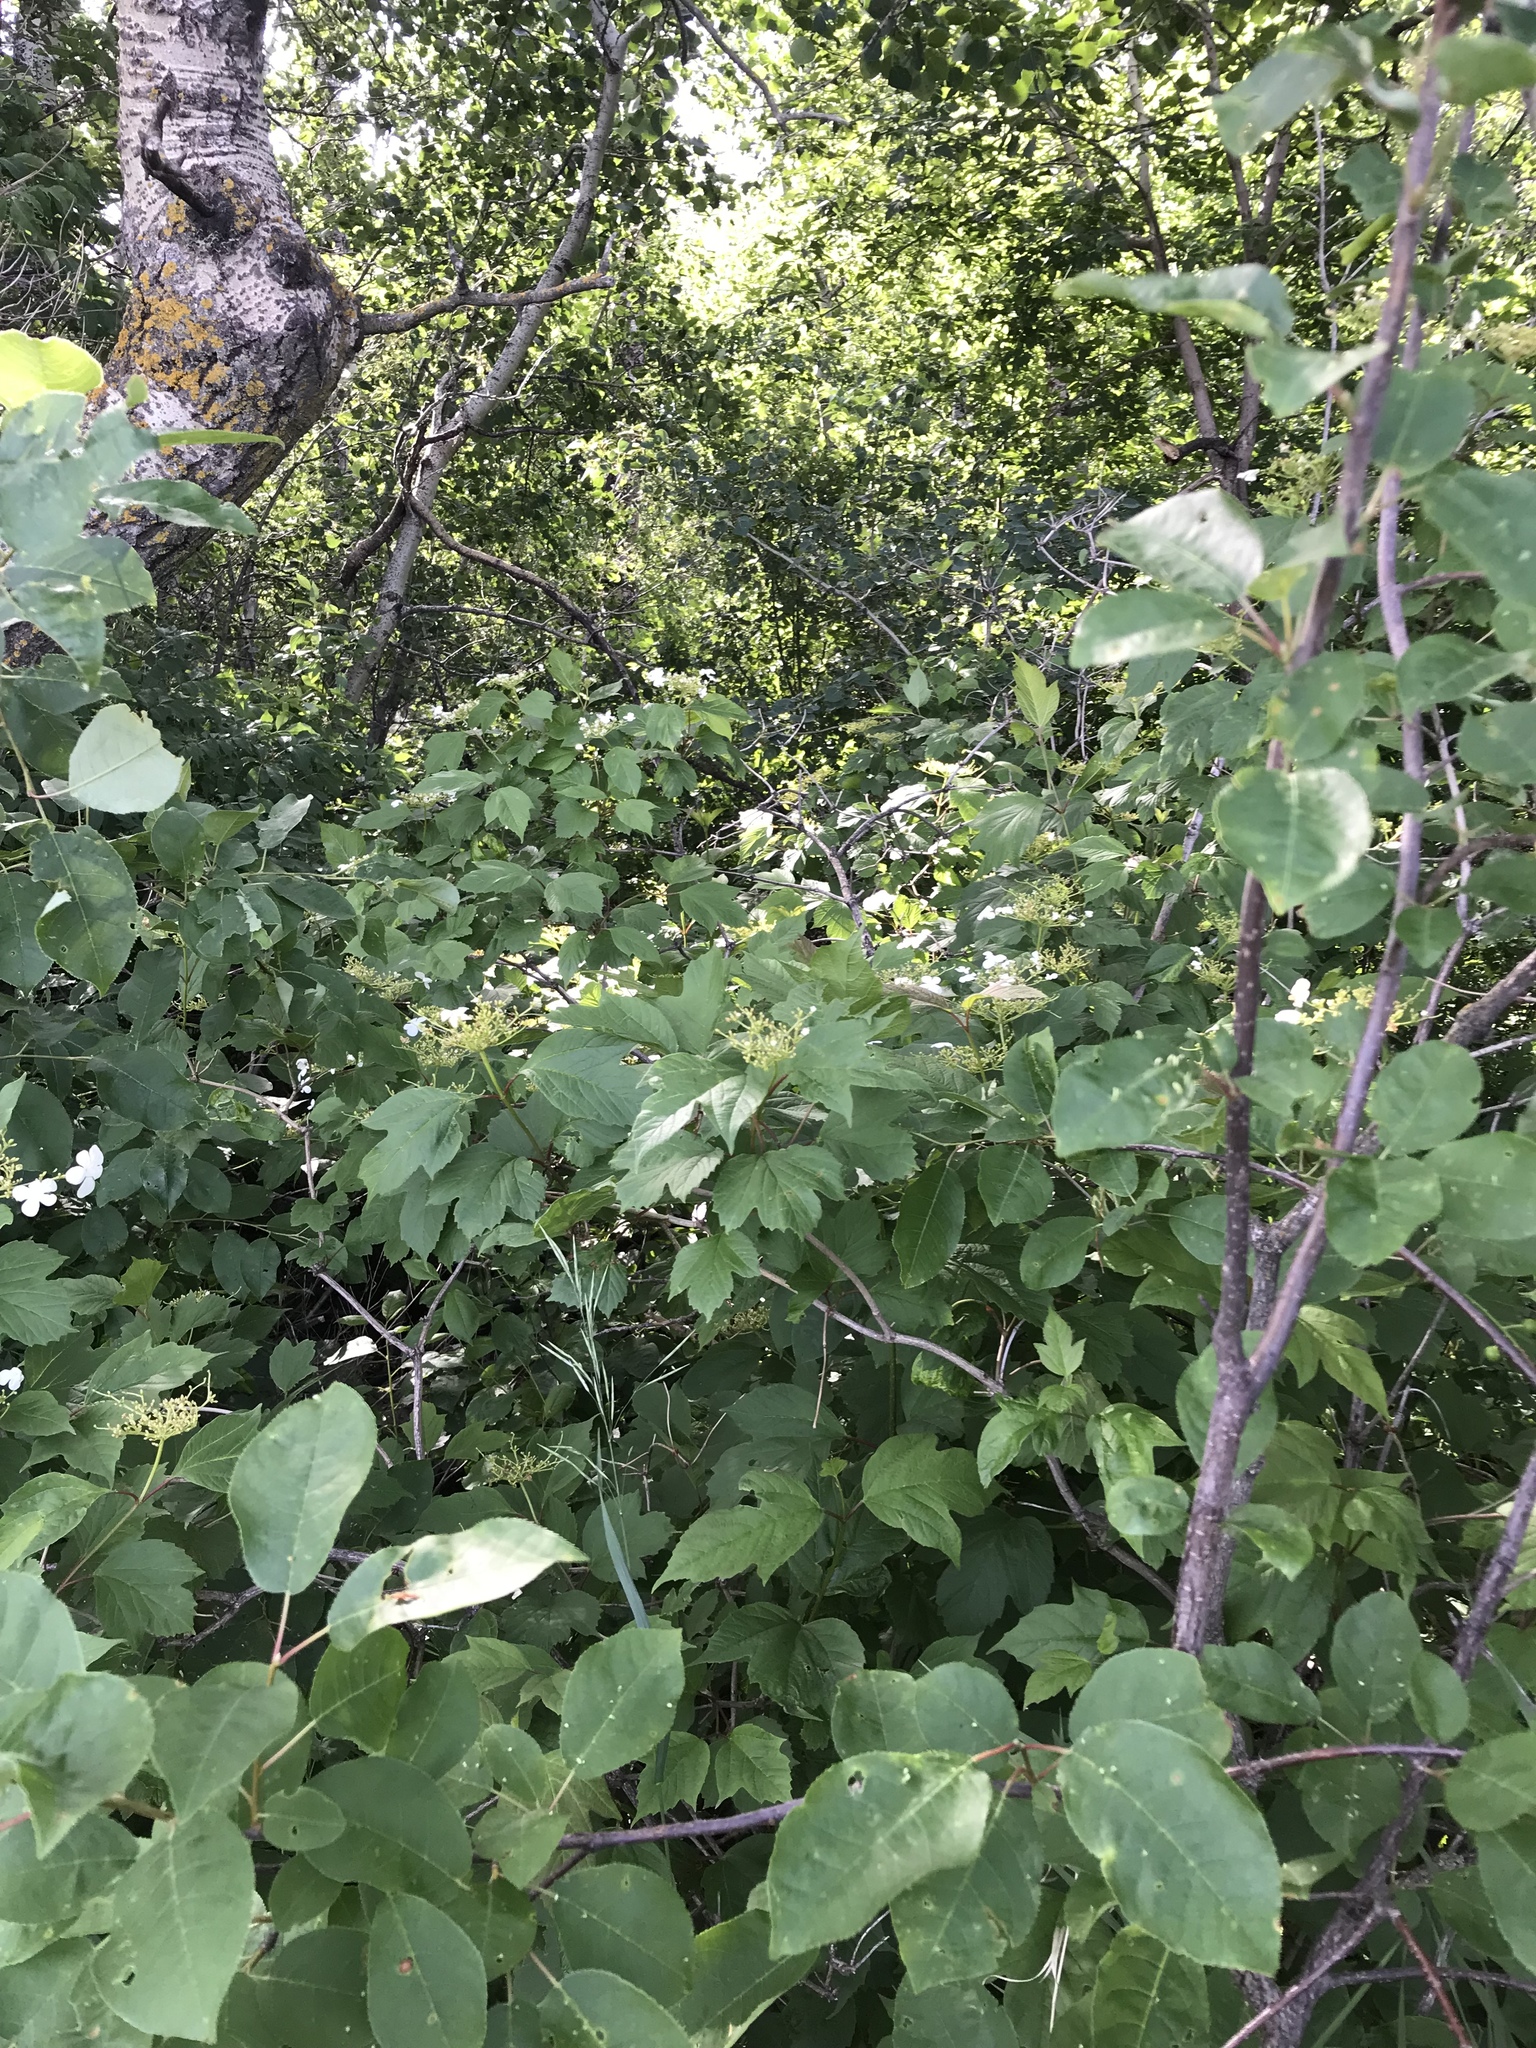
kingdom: Plantae
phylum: Tracheophyta
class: Magnoliopsida
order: Dipsacales
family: Viburnaceae
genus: Viburnum
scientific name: Viburnum opulus
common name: Guelder-rose
